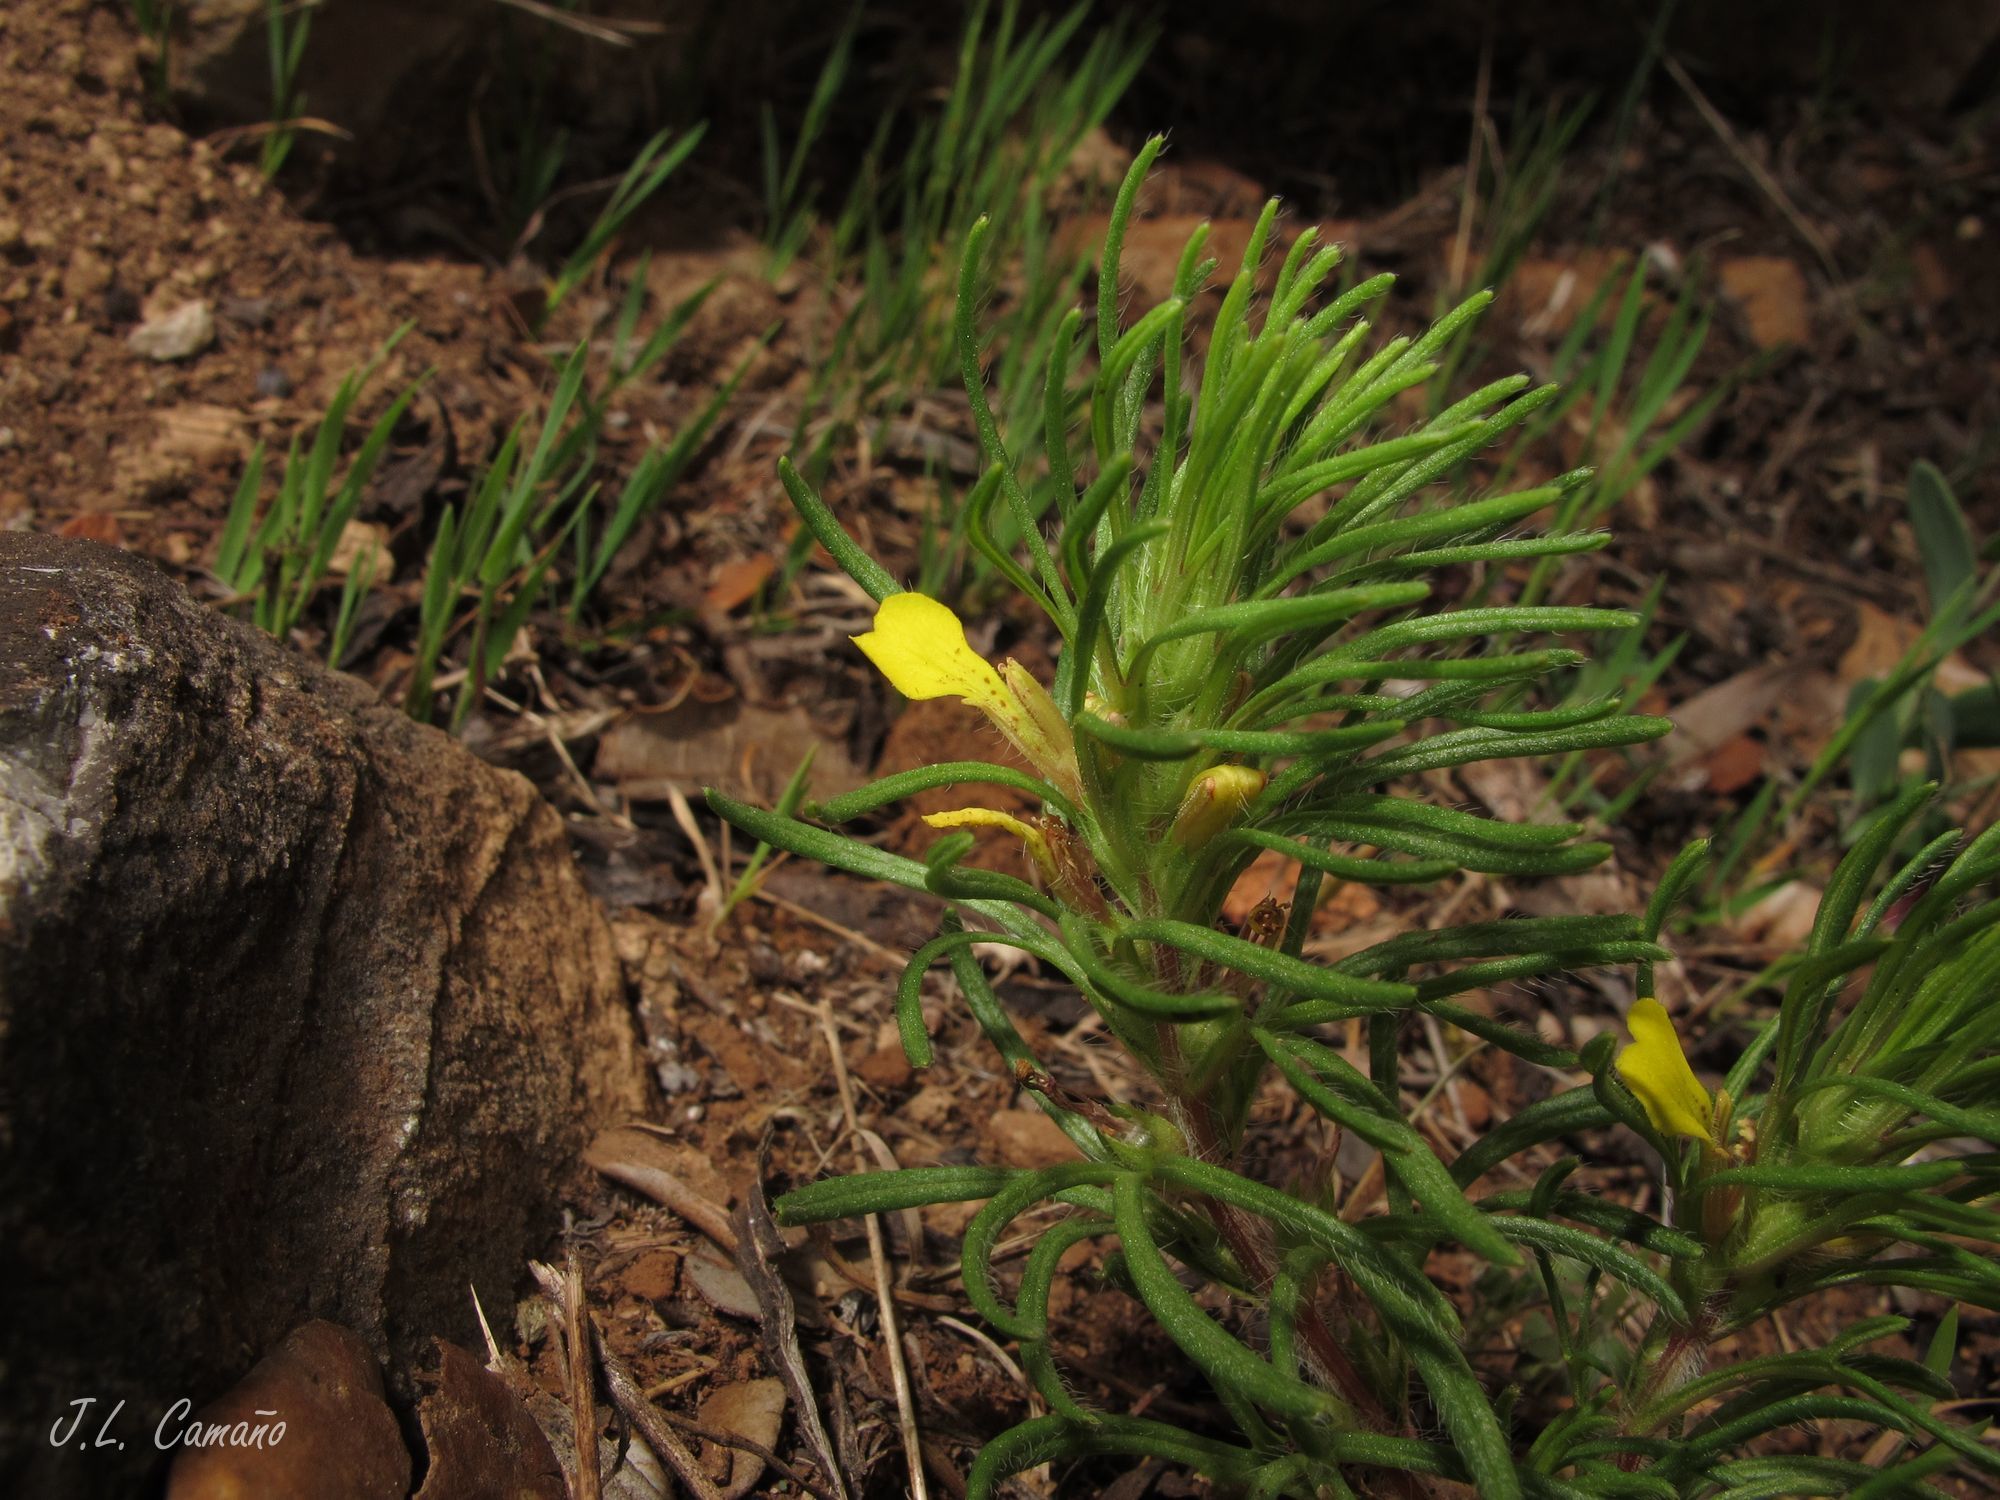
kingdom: Plantae
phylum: Tracheophyta
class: Magnoliopsida
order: Lamiales
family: Lamiaceae
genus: Ajuga
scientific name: Ajuga chamaepitys
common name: Ground-pine
